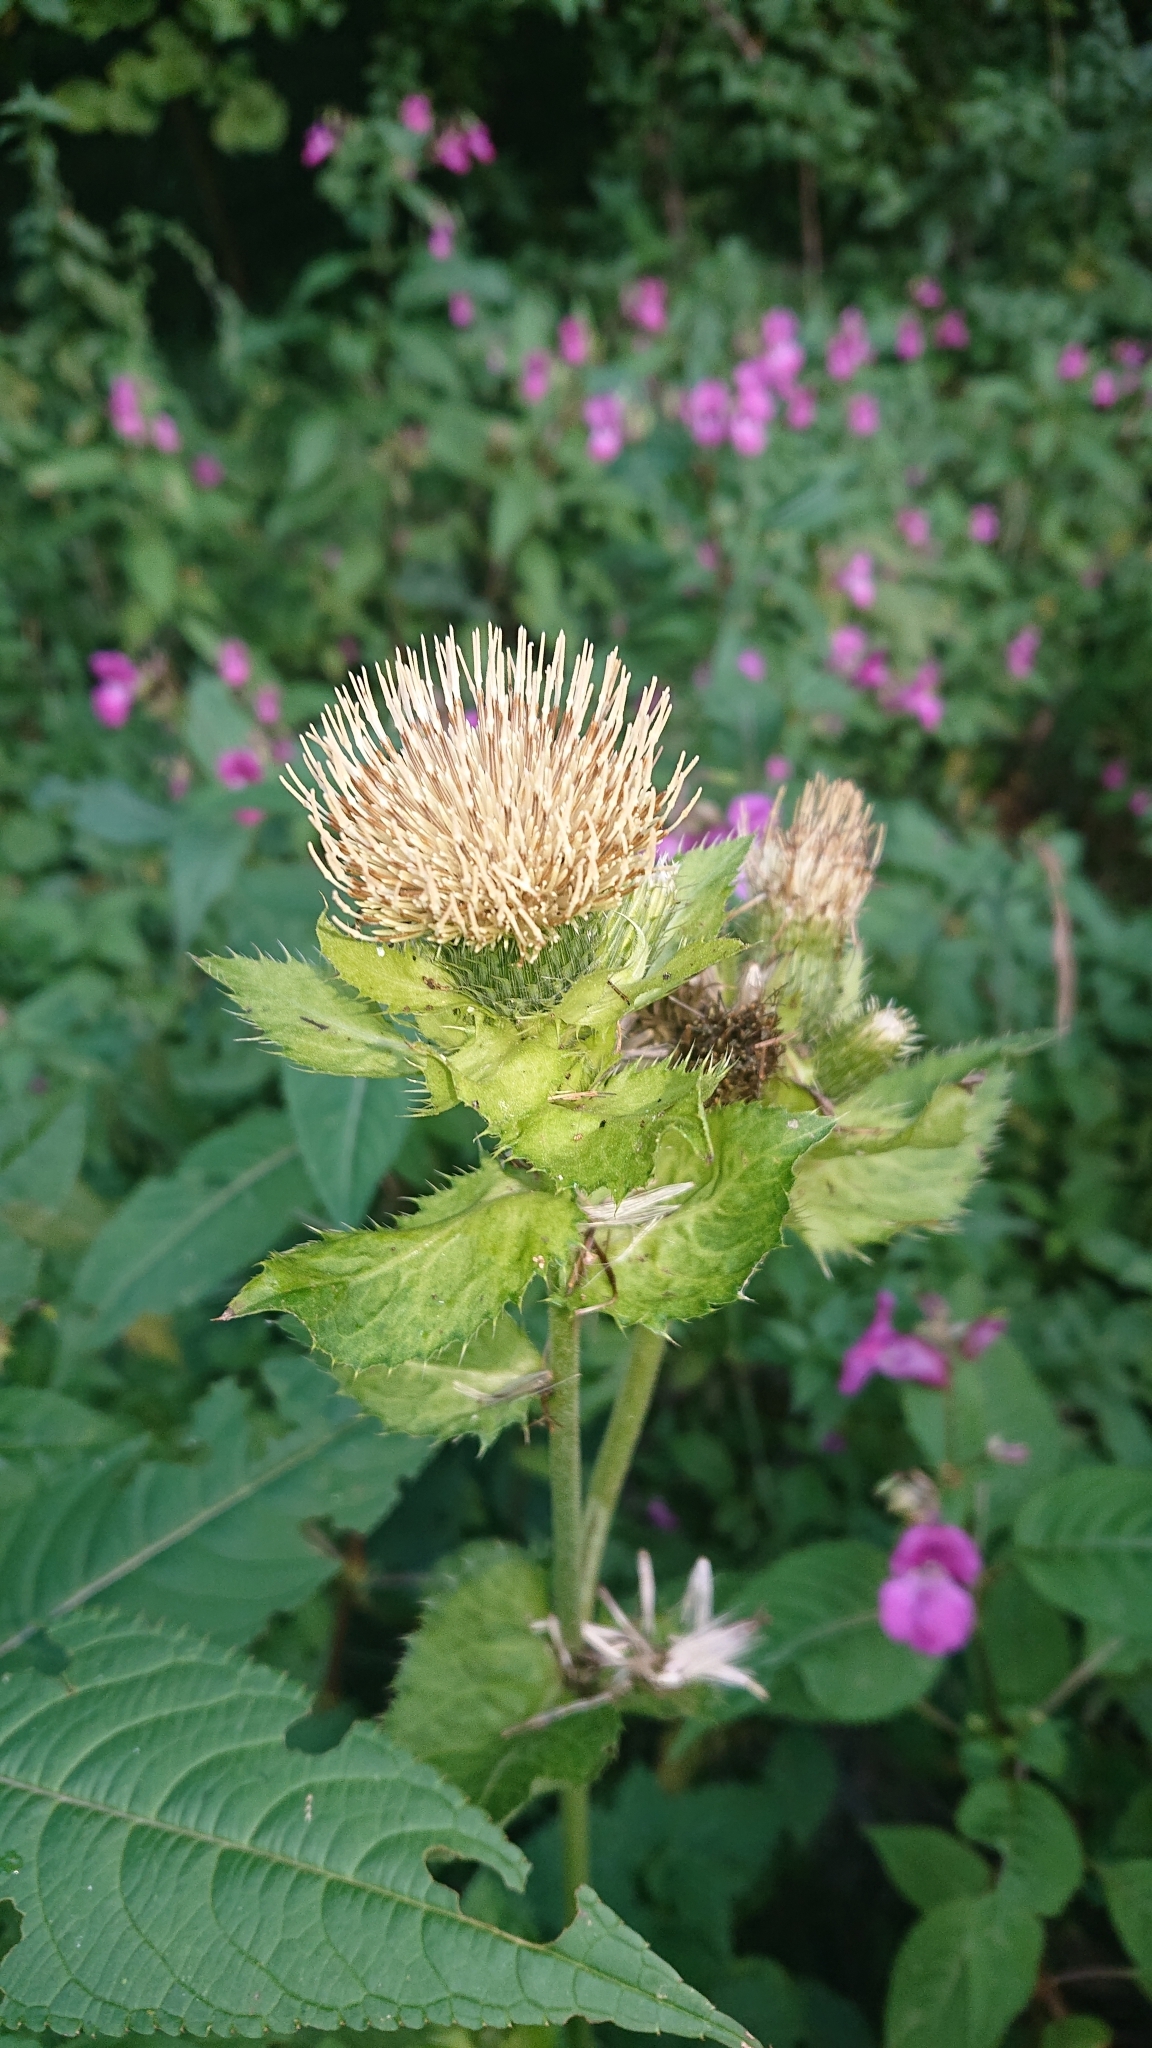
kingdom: Plantae
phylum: Tracheophyta
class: Magnoliopsida
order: Asterales
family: Asteraceae
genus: Cirsium
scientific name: Cirsium oleraceum
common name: Cabbage thistle
